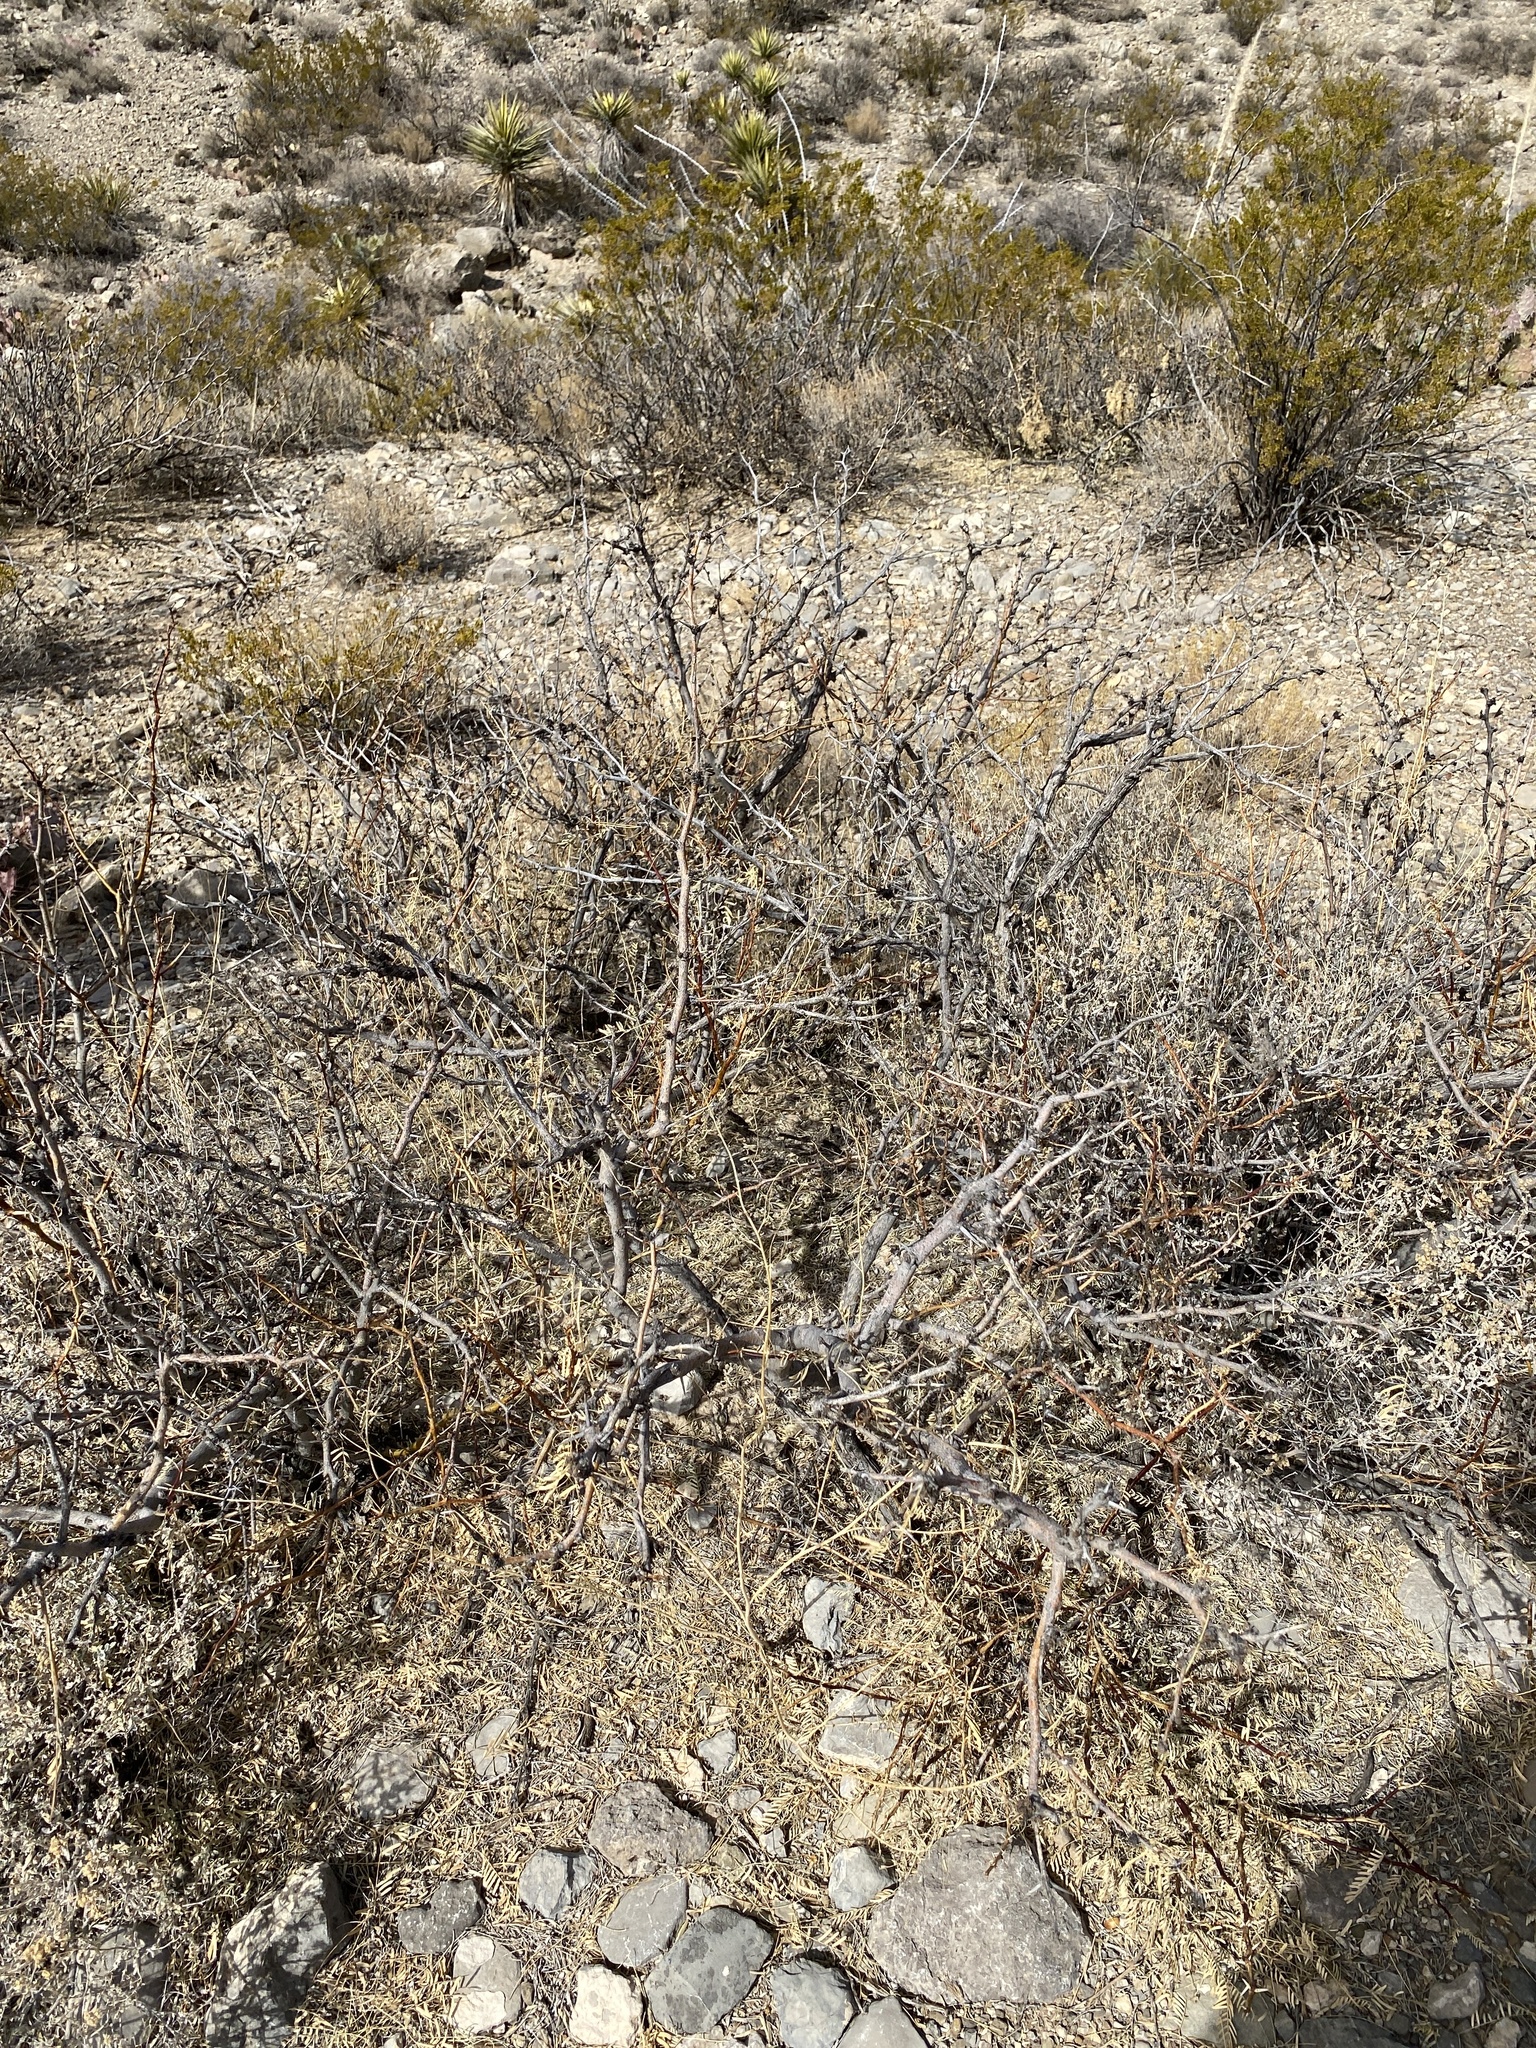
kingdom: Plantae
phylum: Tracheophyta
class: Magnoliopsida
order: Fabales
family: Fabaceae
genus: Prosopis
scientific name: Prosopis glandulosa
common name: Honey mesquite
